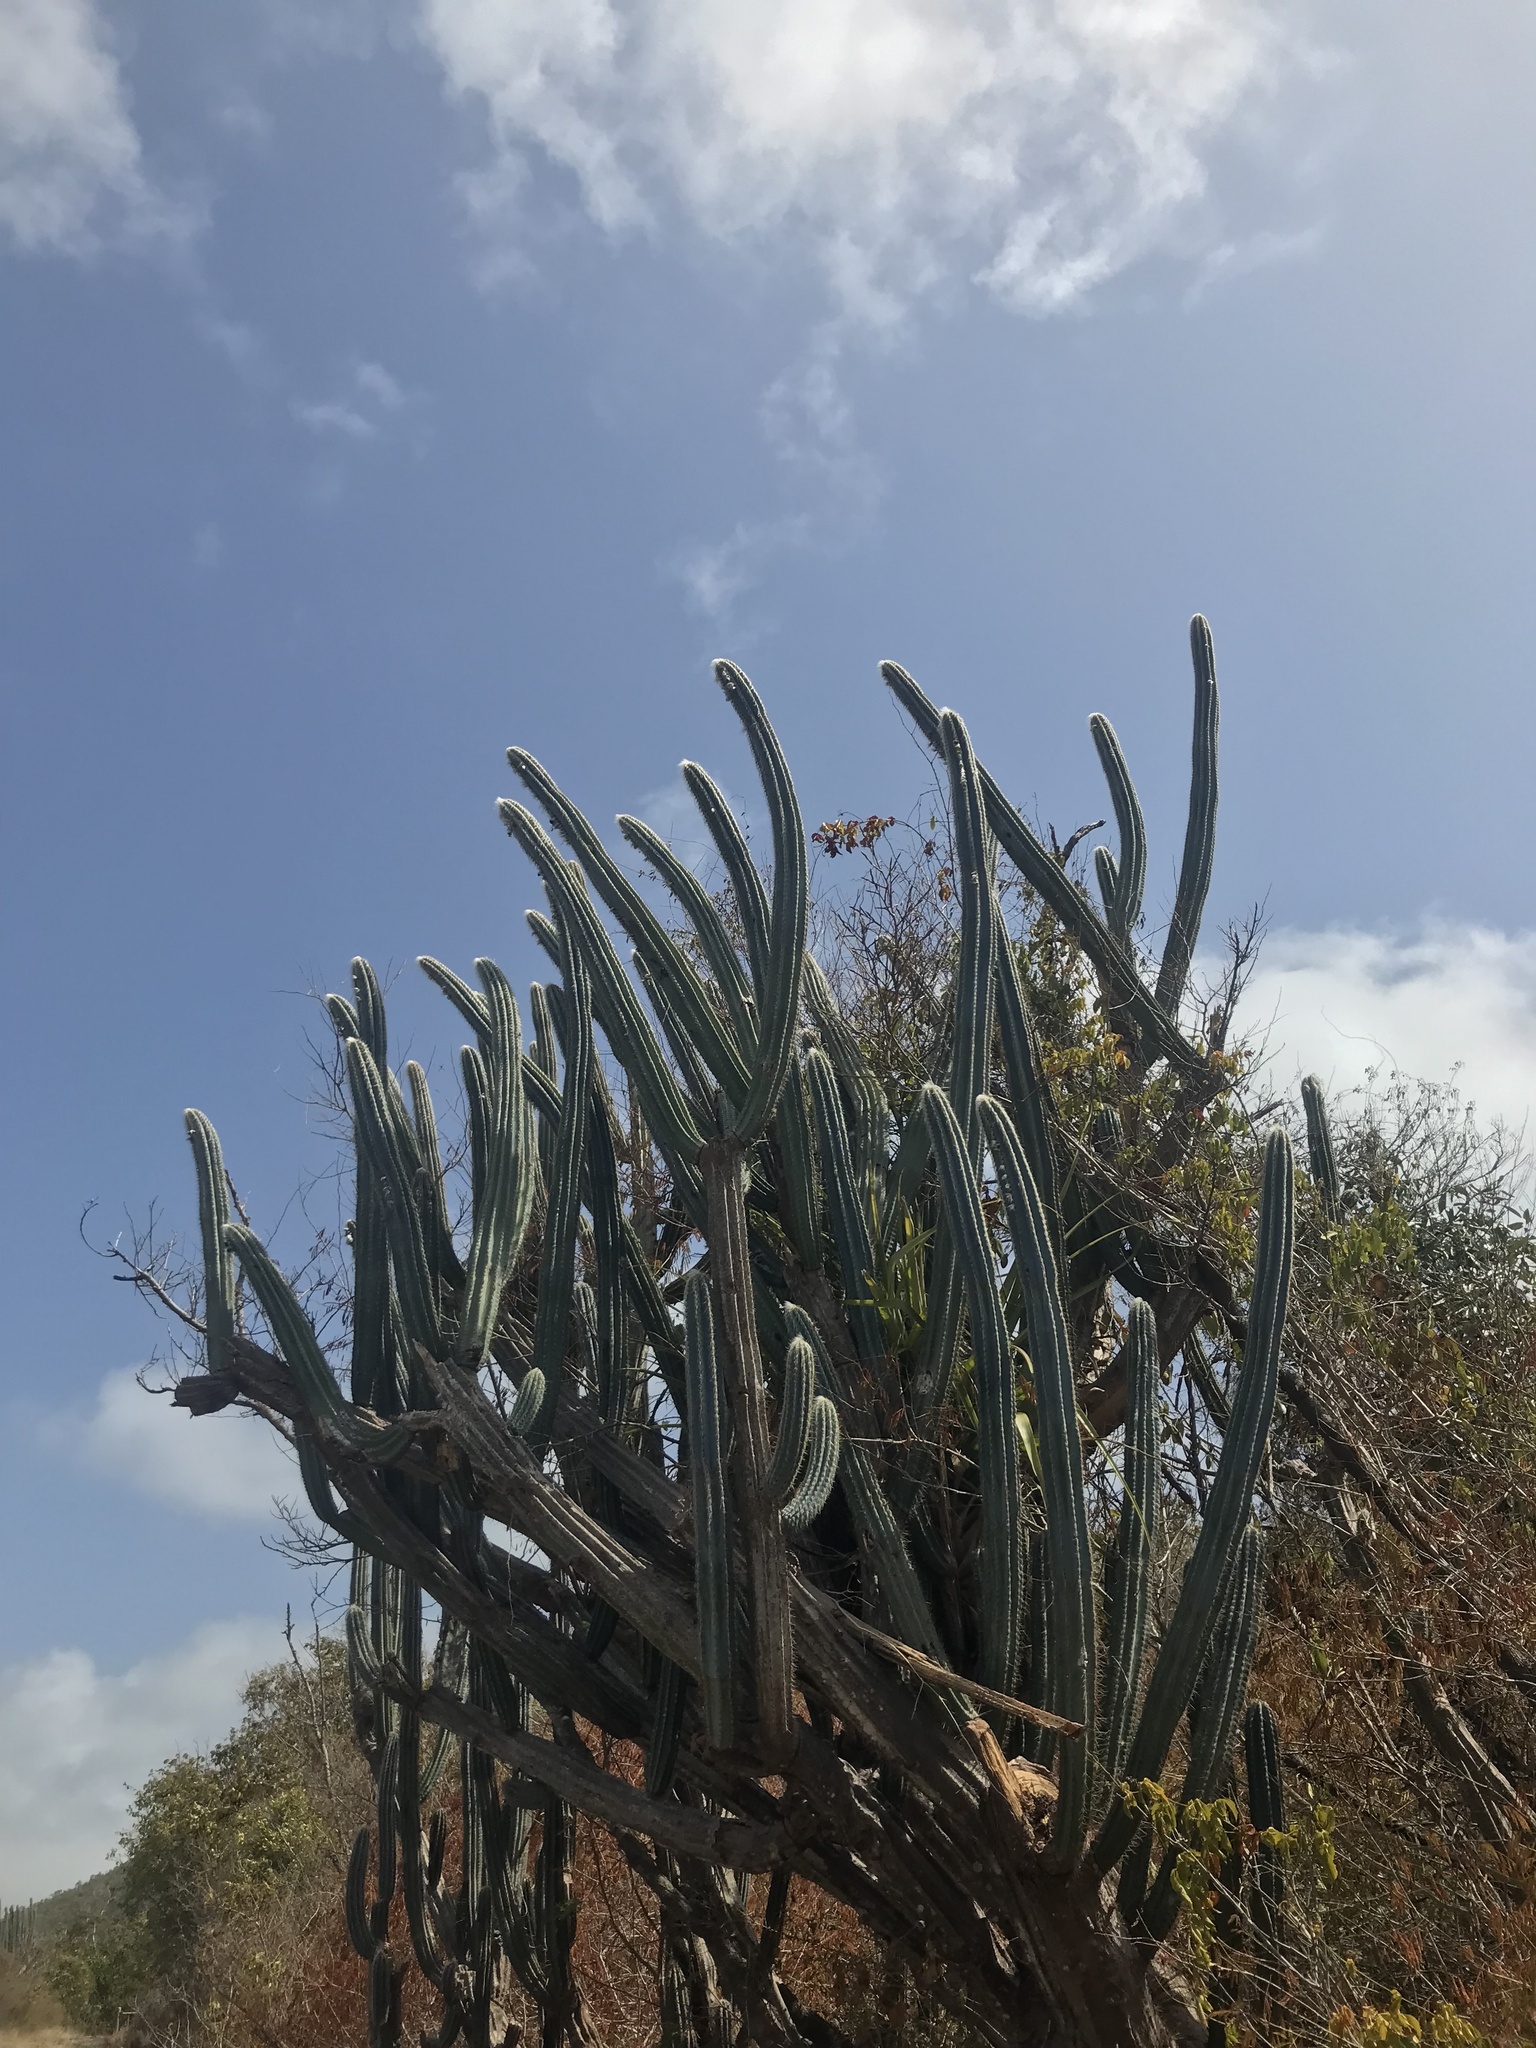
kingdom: Plantae
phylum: Tracheophyta
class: Magnoliopsida
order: Caryophyllales
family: Cactaceae
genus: Pilosocereus
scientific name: Pilosocereus armatus
